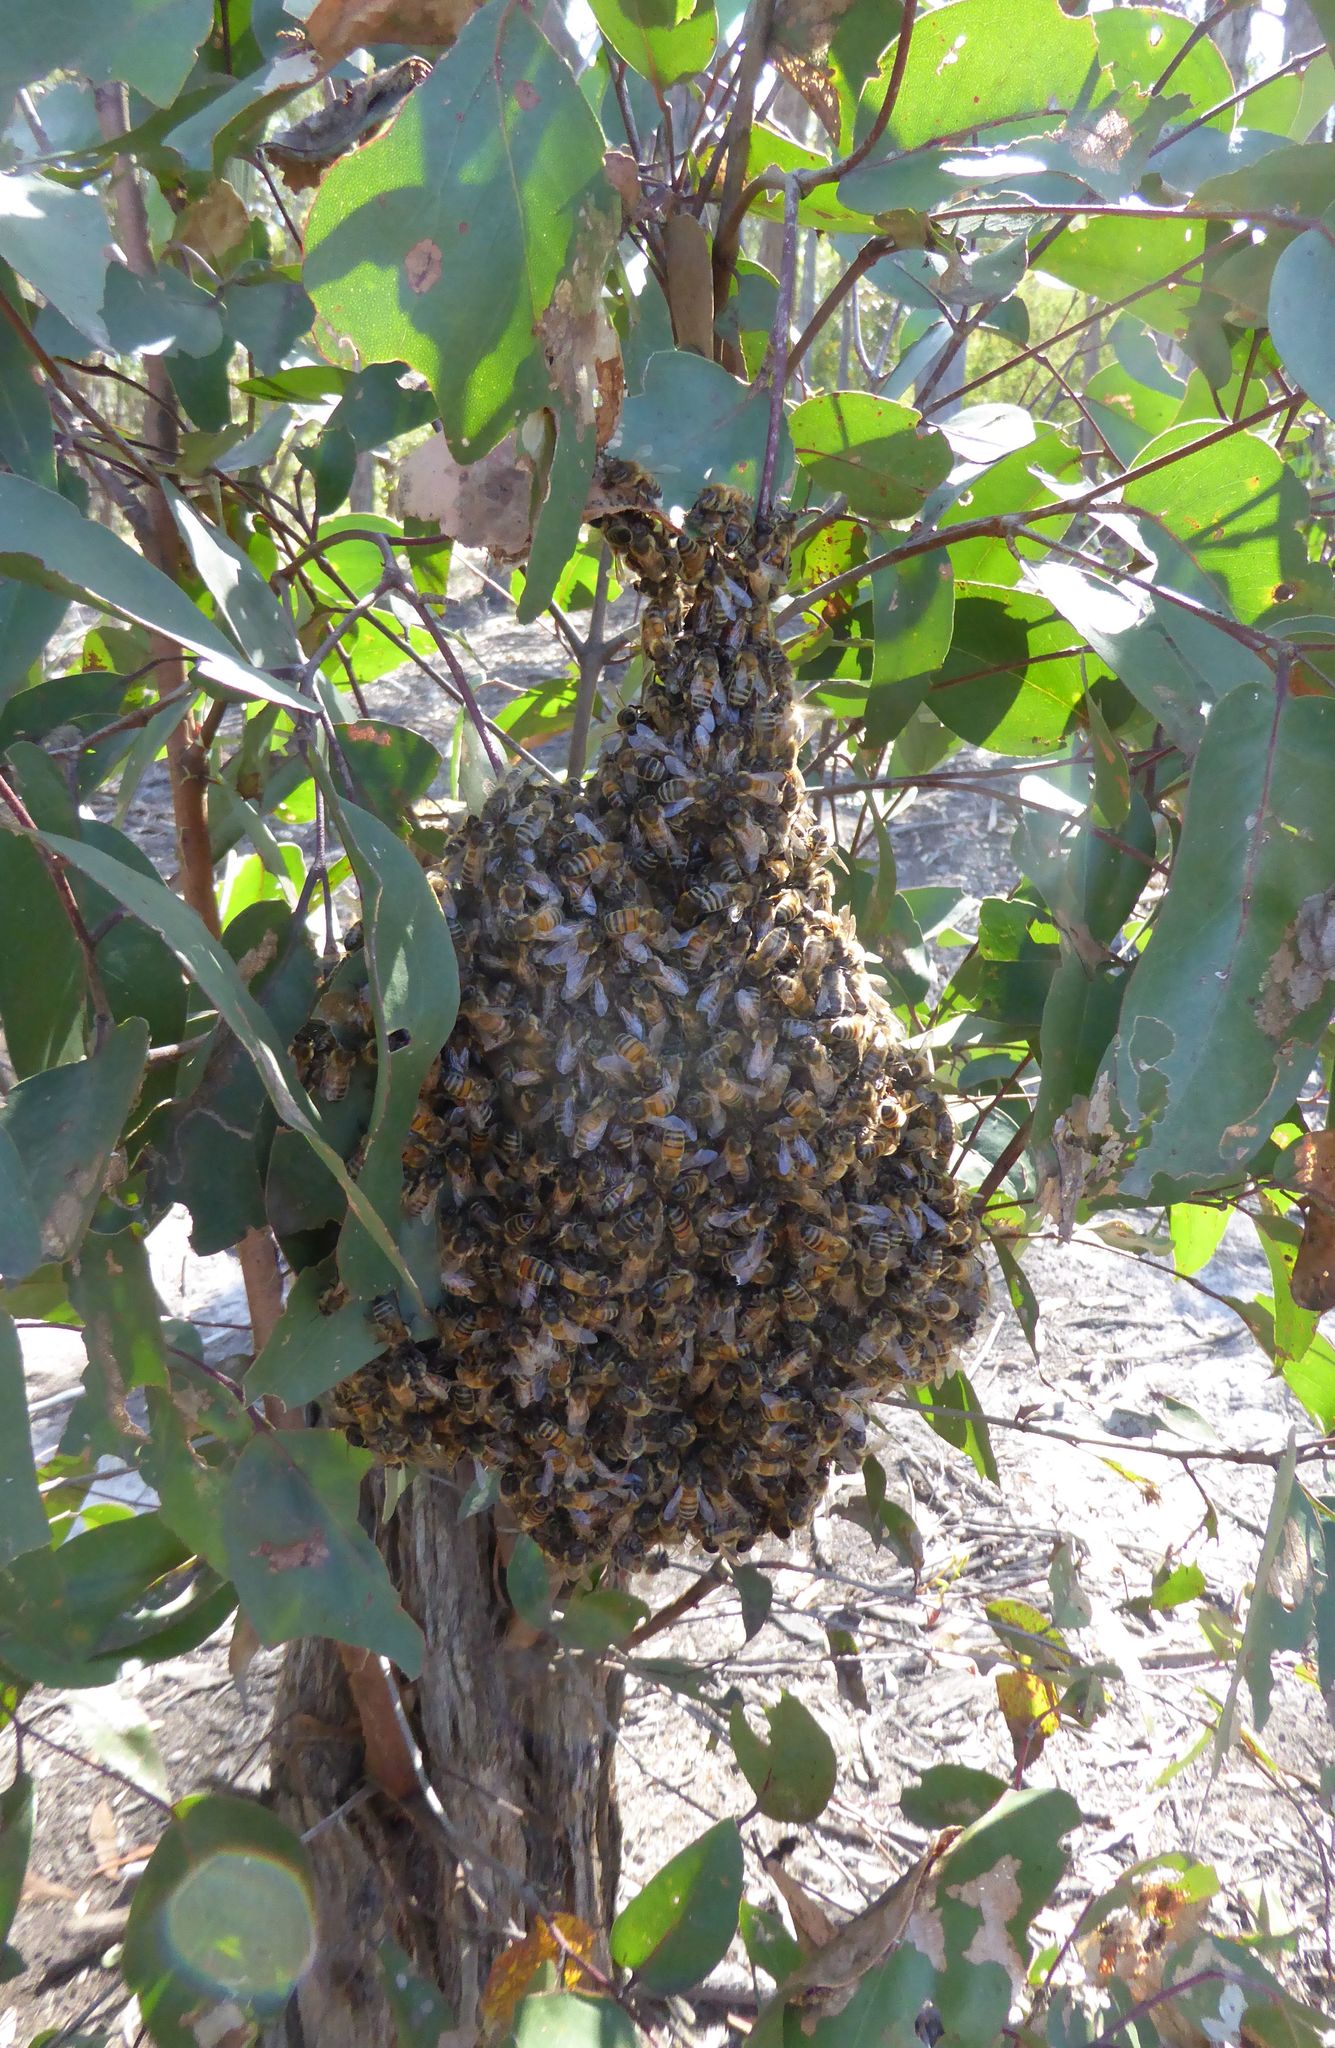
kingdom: Animalia
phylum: Arthropoda
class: Insecta
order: Hymenoptera
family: Apidae
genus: Apis
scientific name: Apis mellifera
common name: Honey bee
